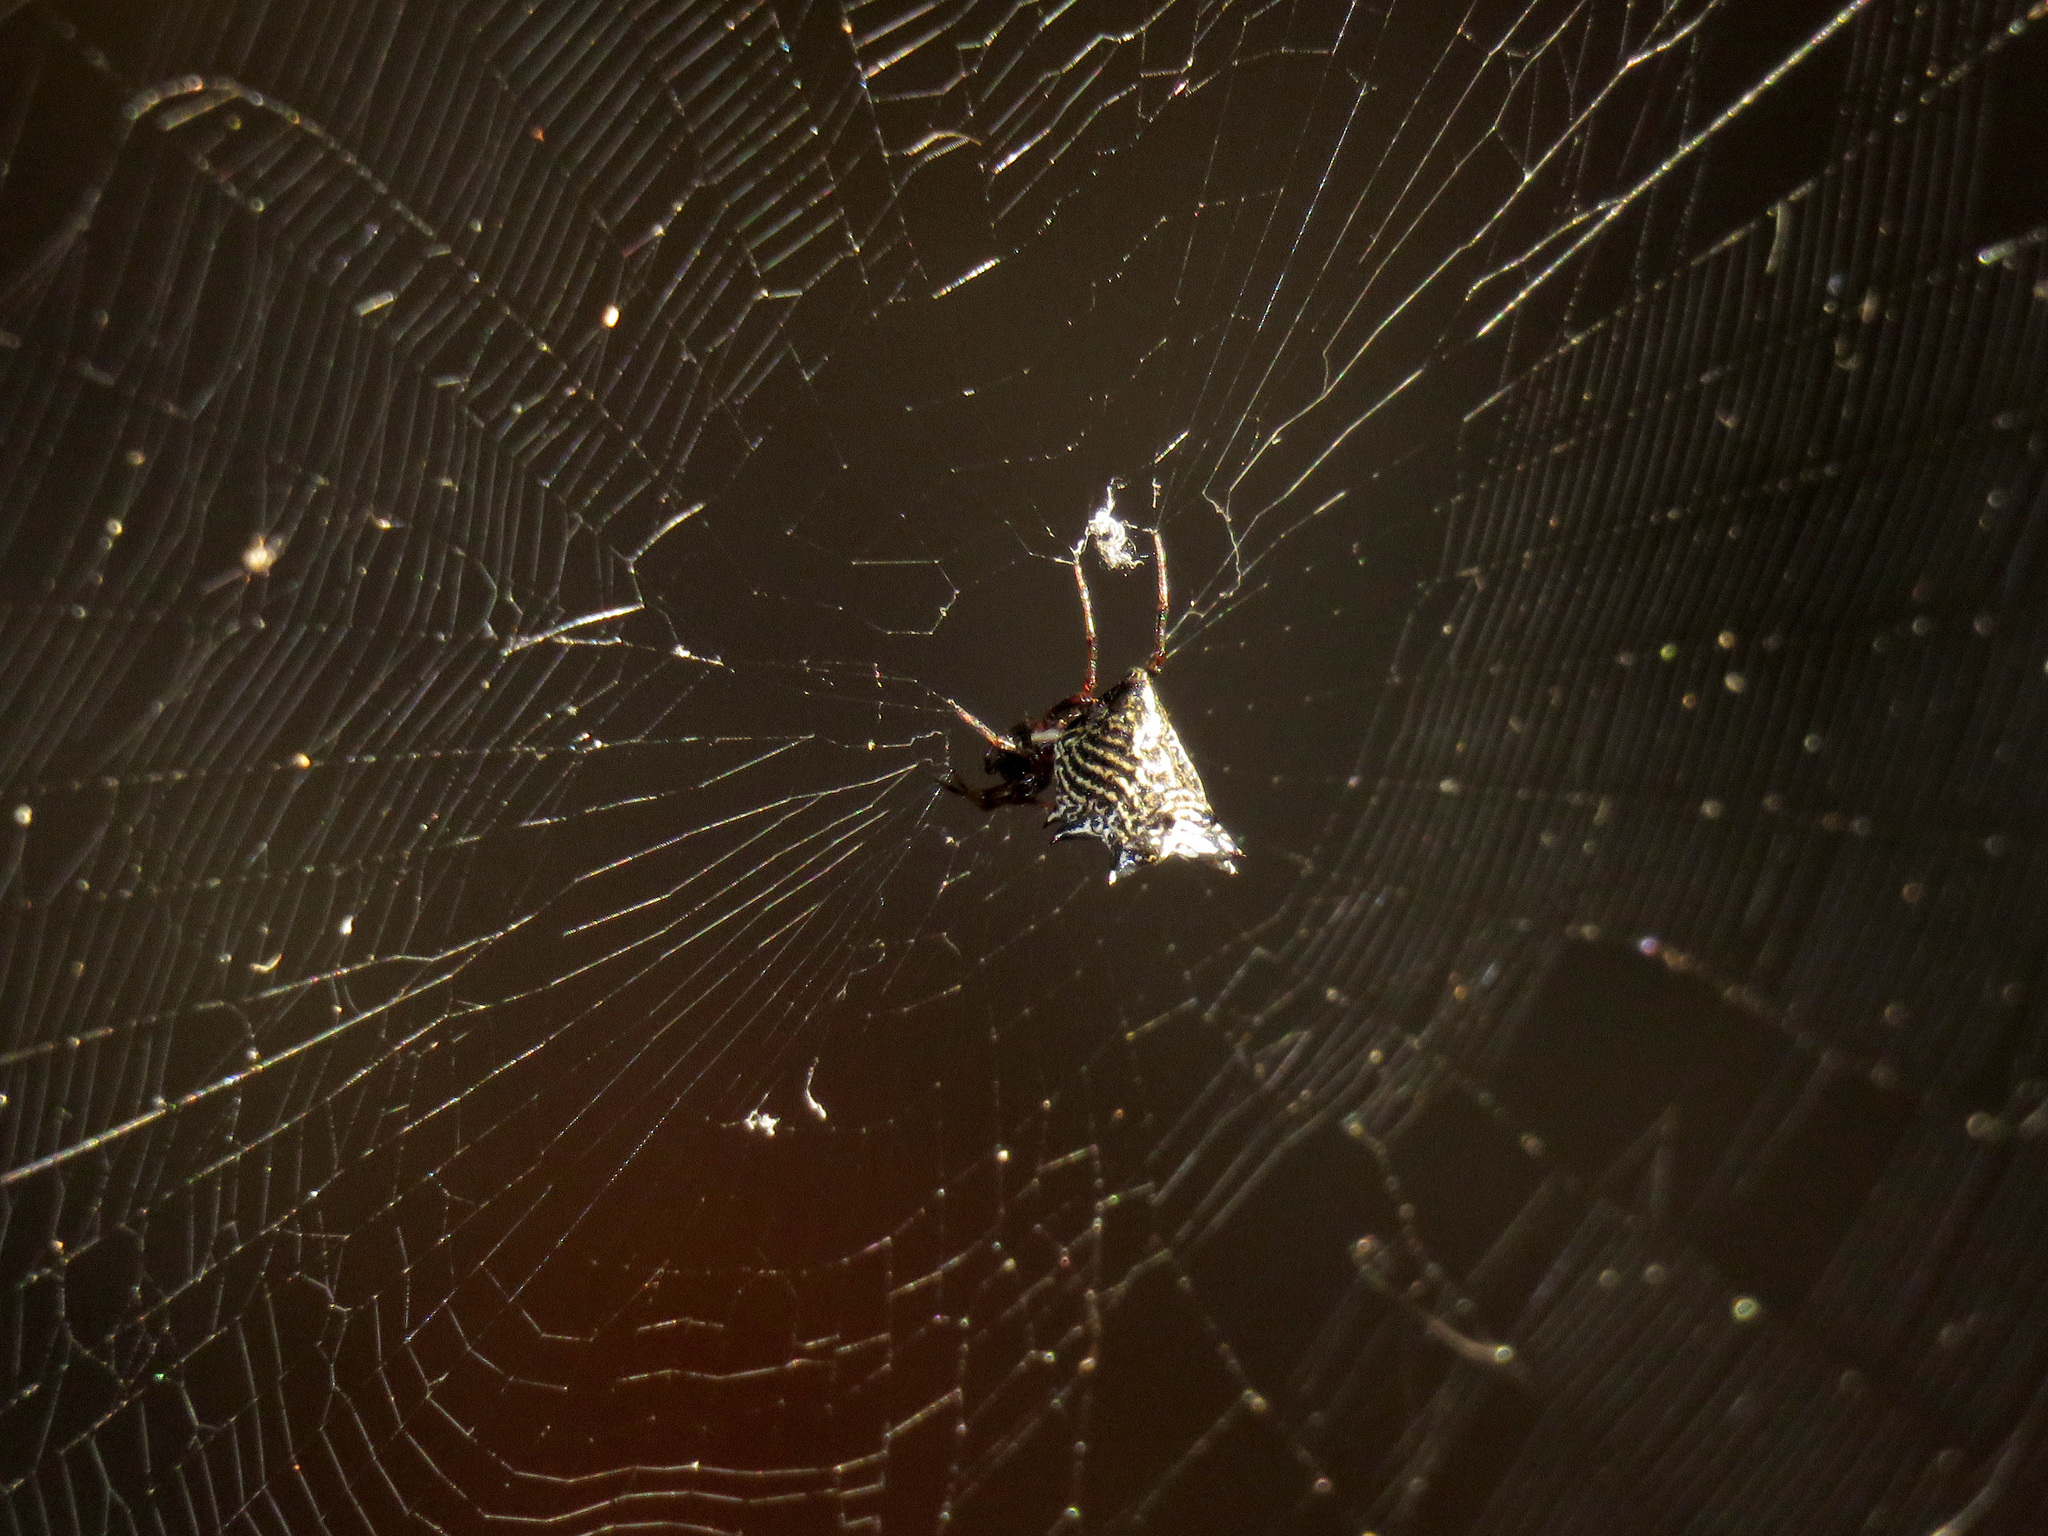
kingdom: Animalia
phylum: Arthropoda
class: Arachnida
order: Araneae
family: Araneidae
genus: Micrathena
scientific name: Micrathena gracilis
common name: Orb weavers
